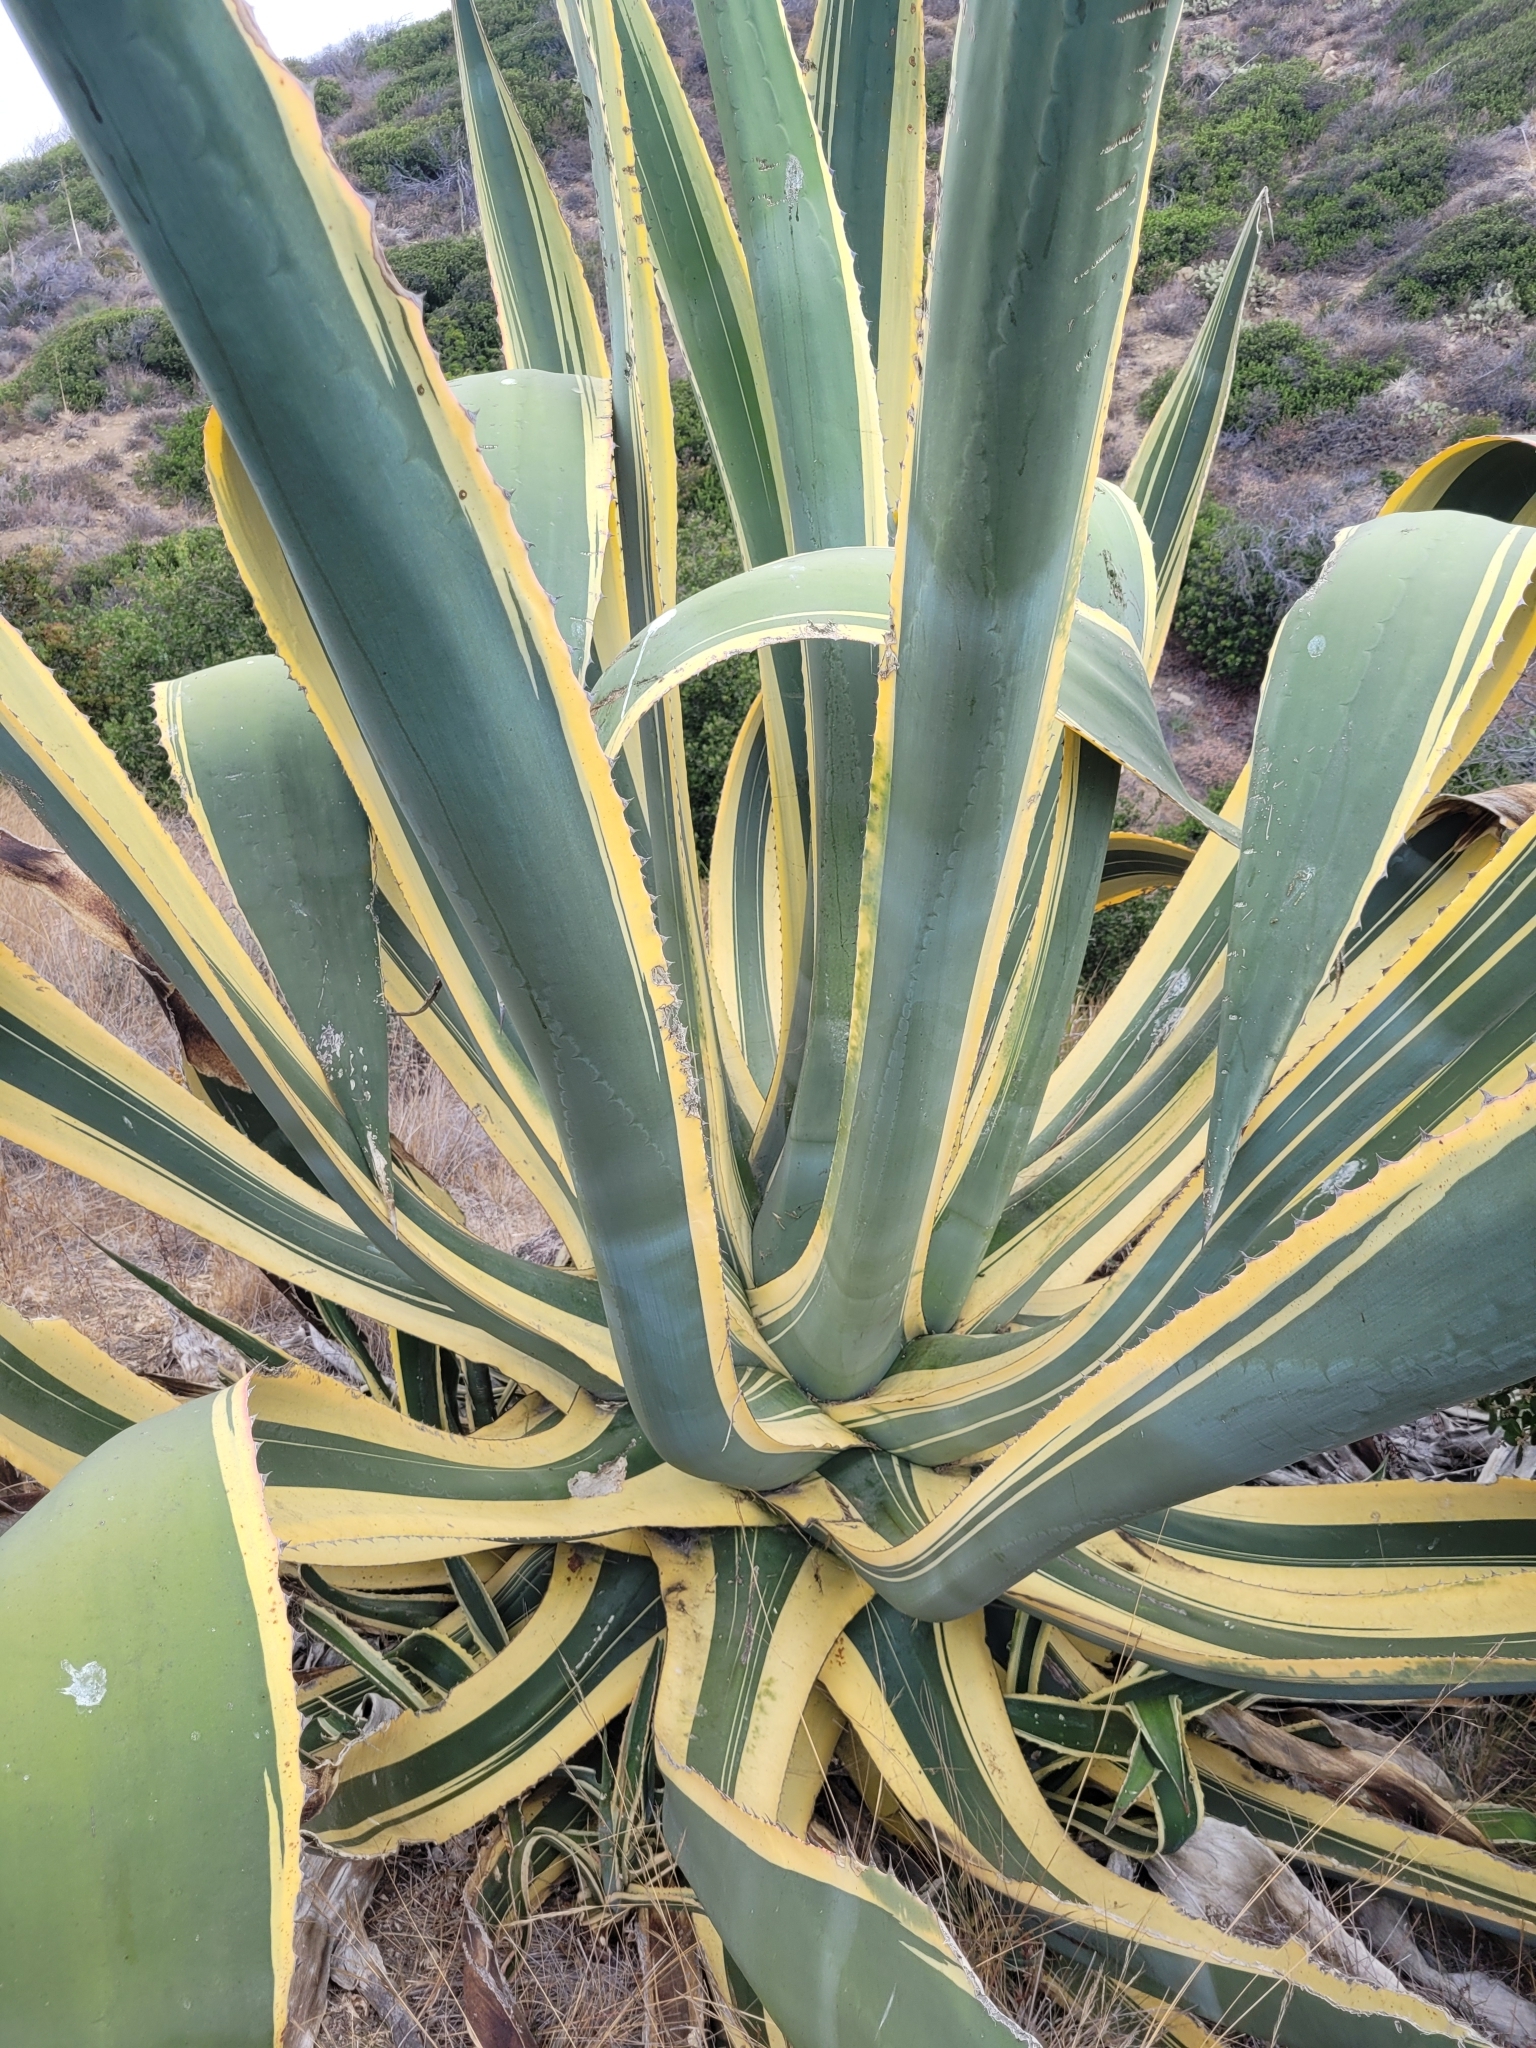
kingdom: Plantae
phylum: Tracheophyta
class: Liliopsida
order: Asparagales
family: Asparagaceae
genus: Agave
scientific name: Agave americana
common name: Centuryplant
